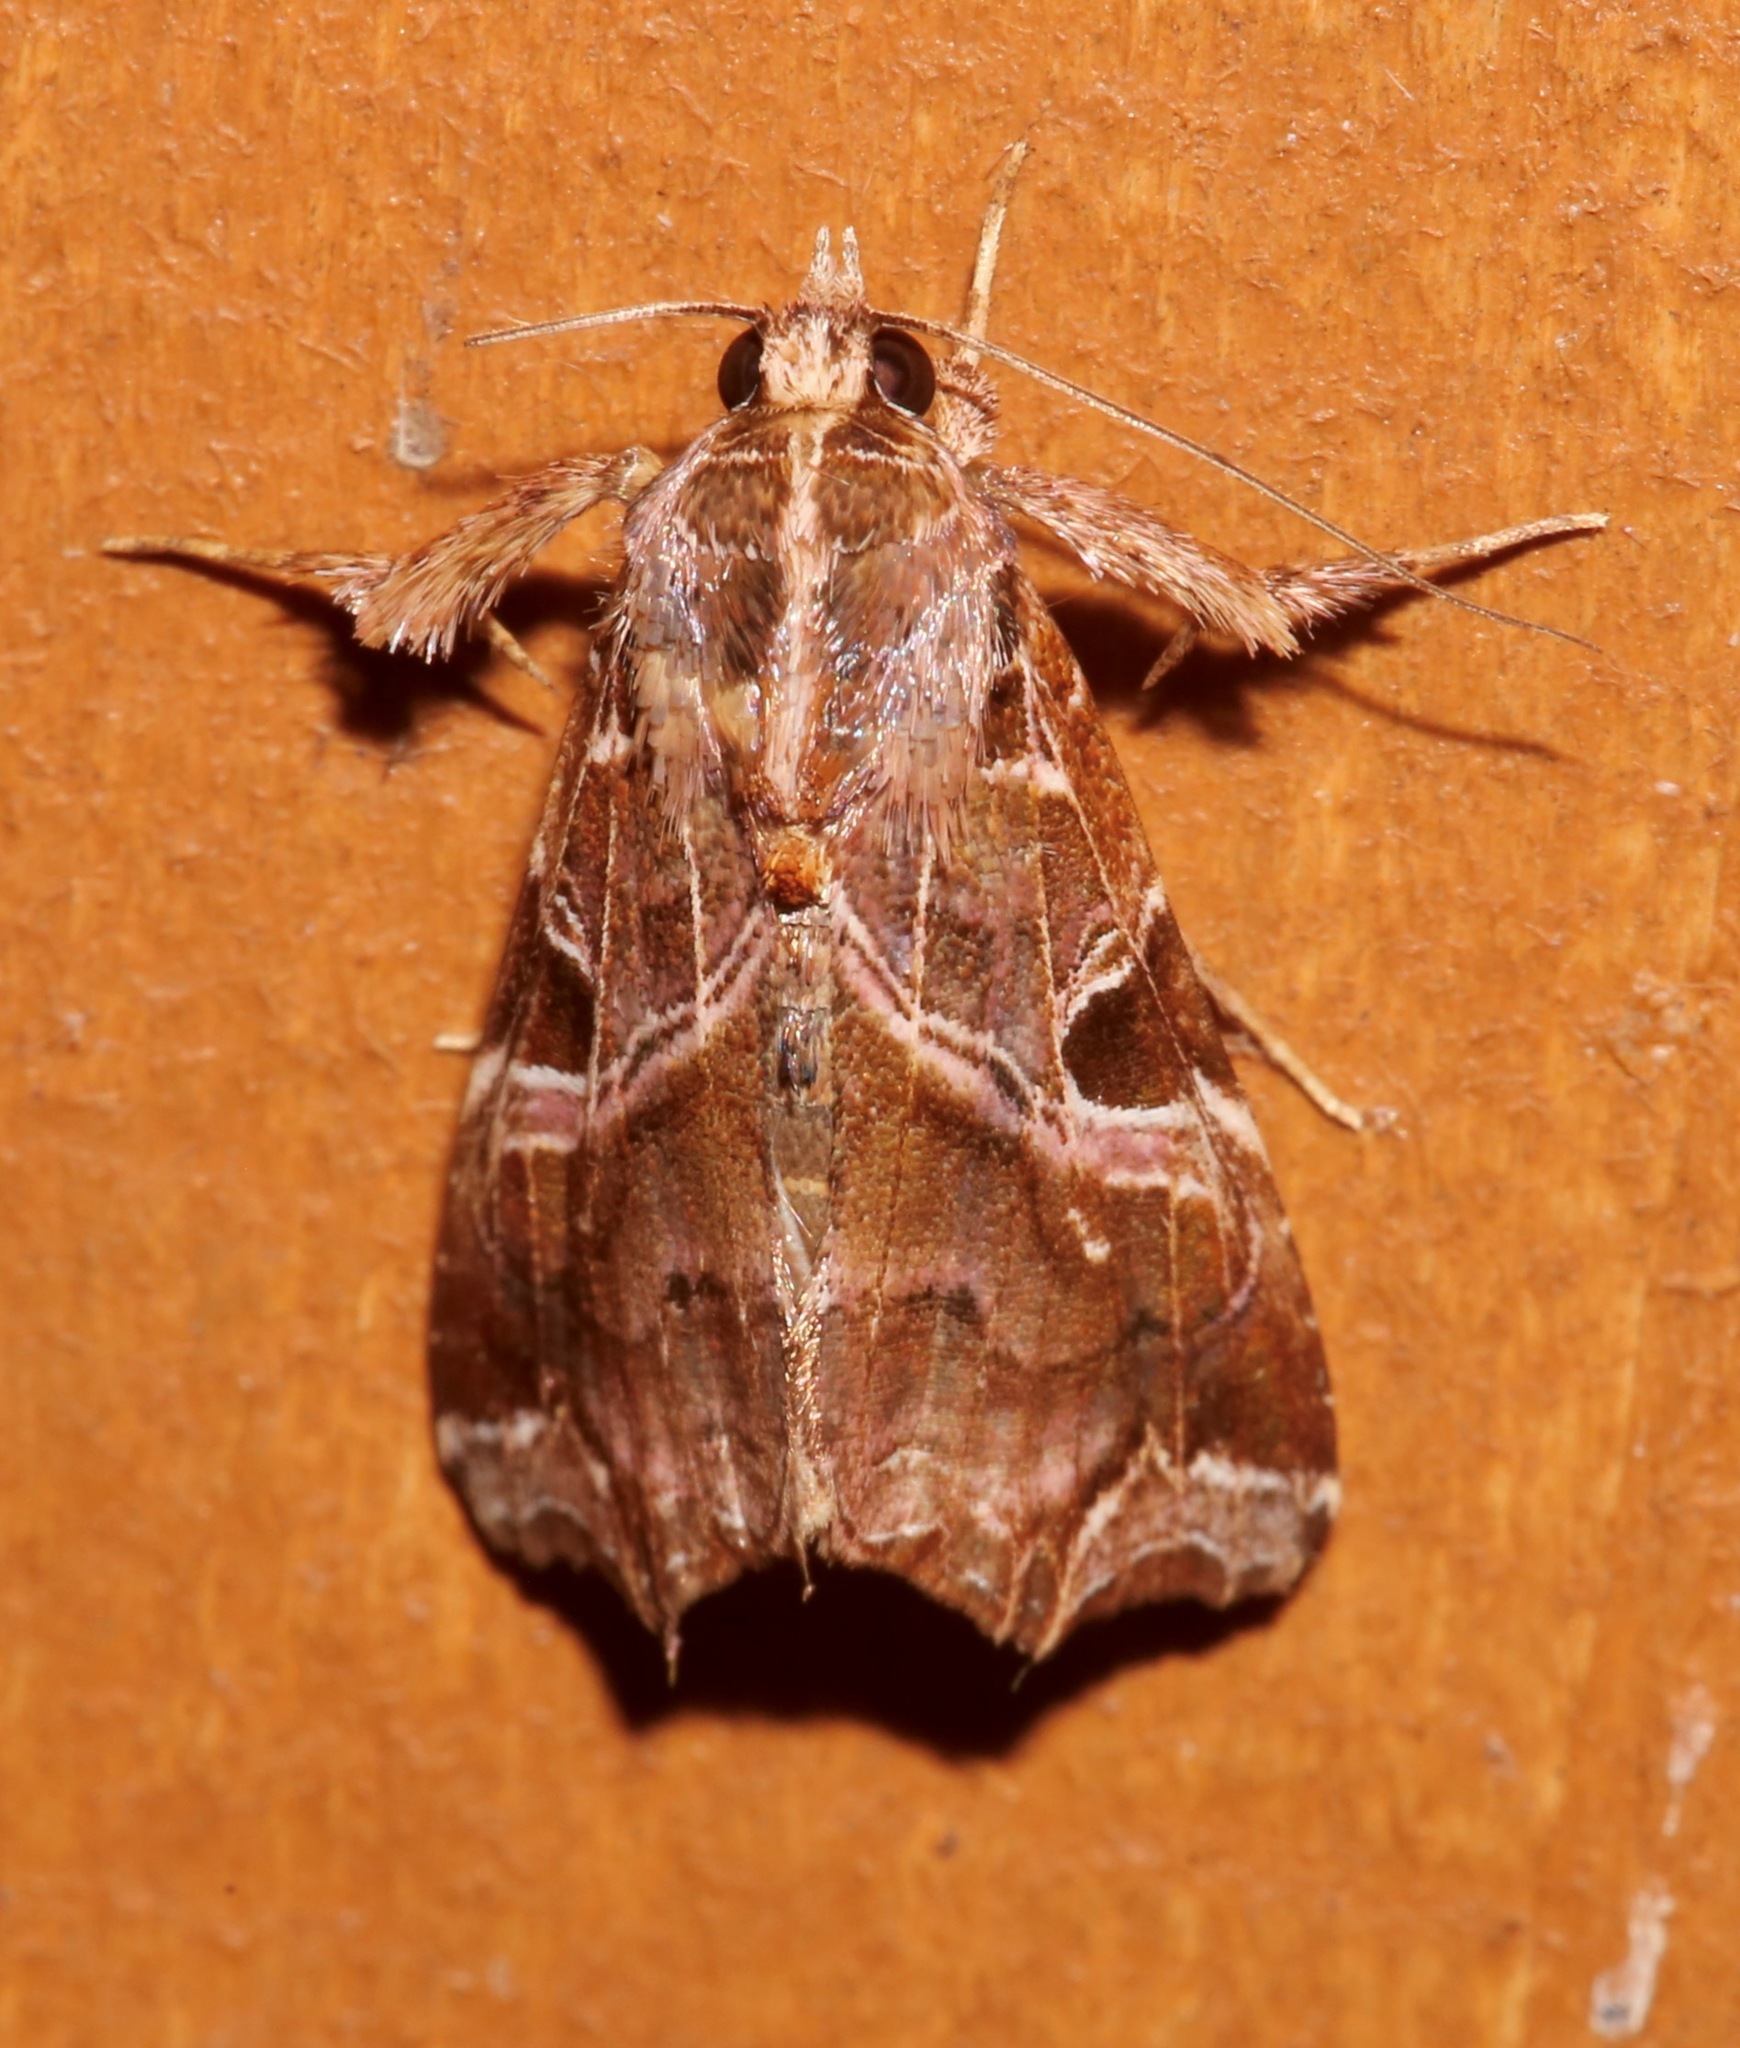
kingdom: Animalia
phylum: Arthropoda
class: Insecta
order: Lepidoptera
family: Noctuidae
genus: Callopistria
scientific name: Callopistria floridensis
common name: Florida fern moth
